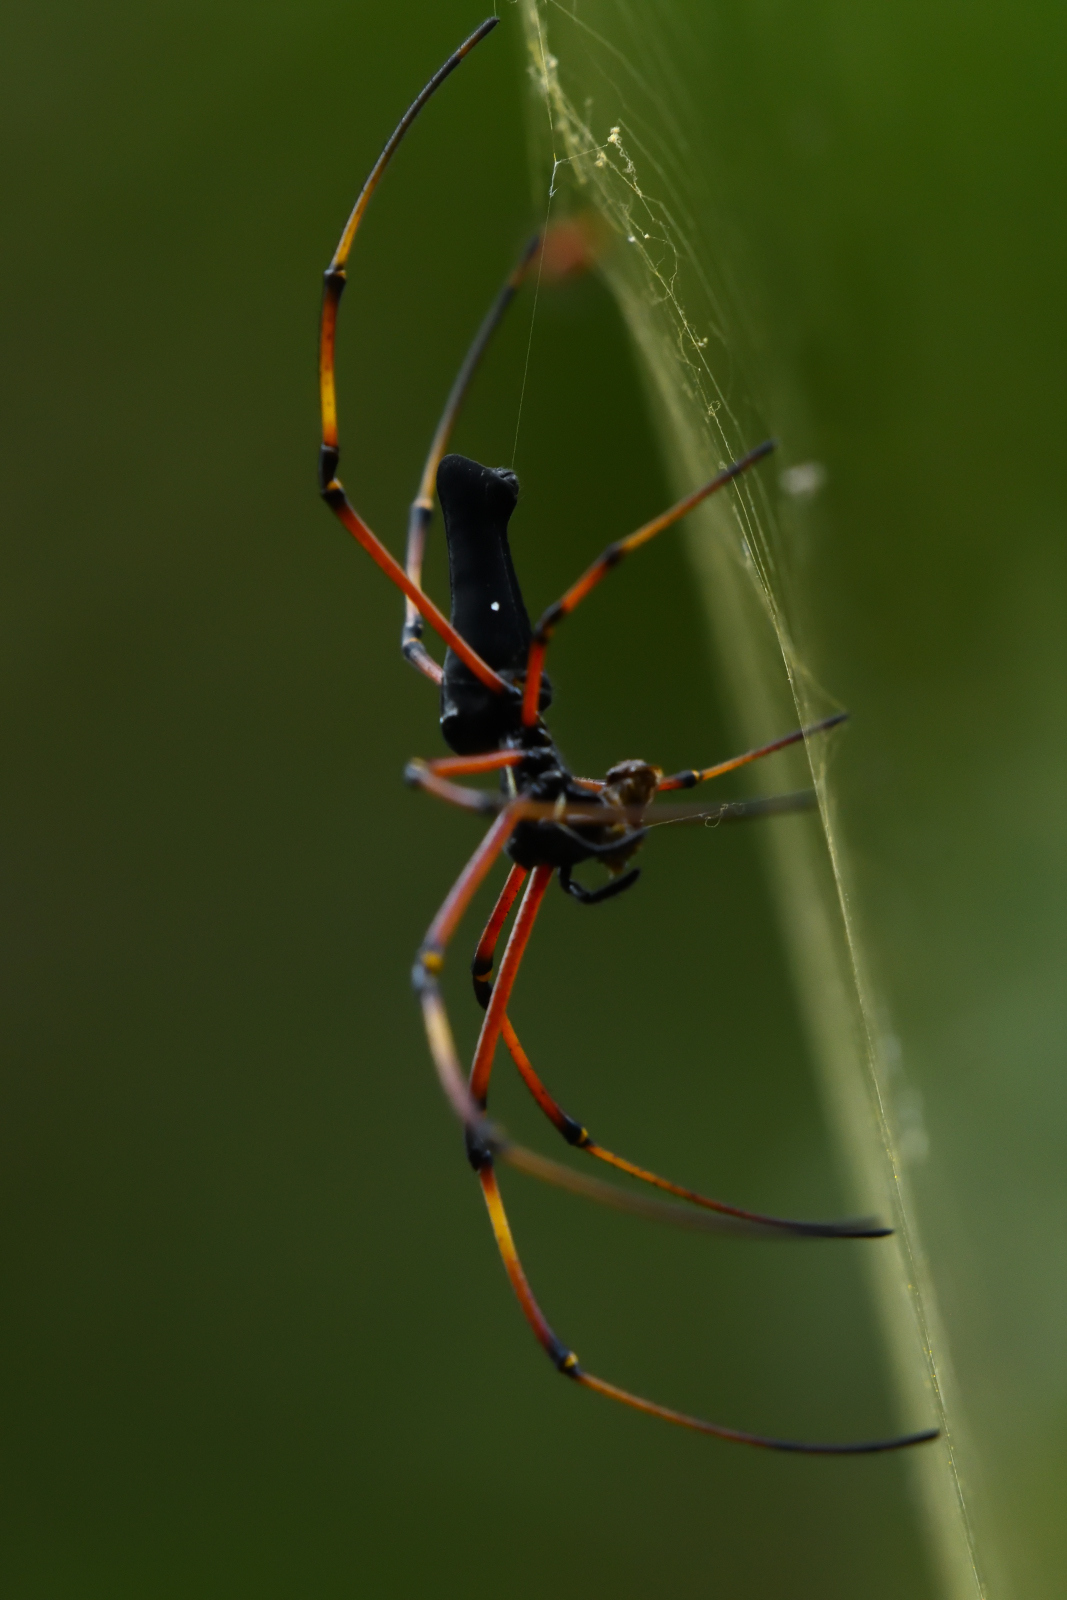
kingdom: Animalia
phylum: Arthropoda
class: Arachnida
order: Araneae
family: Araneidae
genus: Nephila
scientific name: Nephila kuhli
